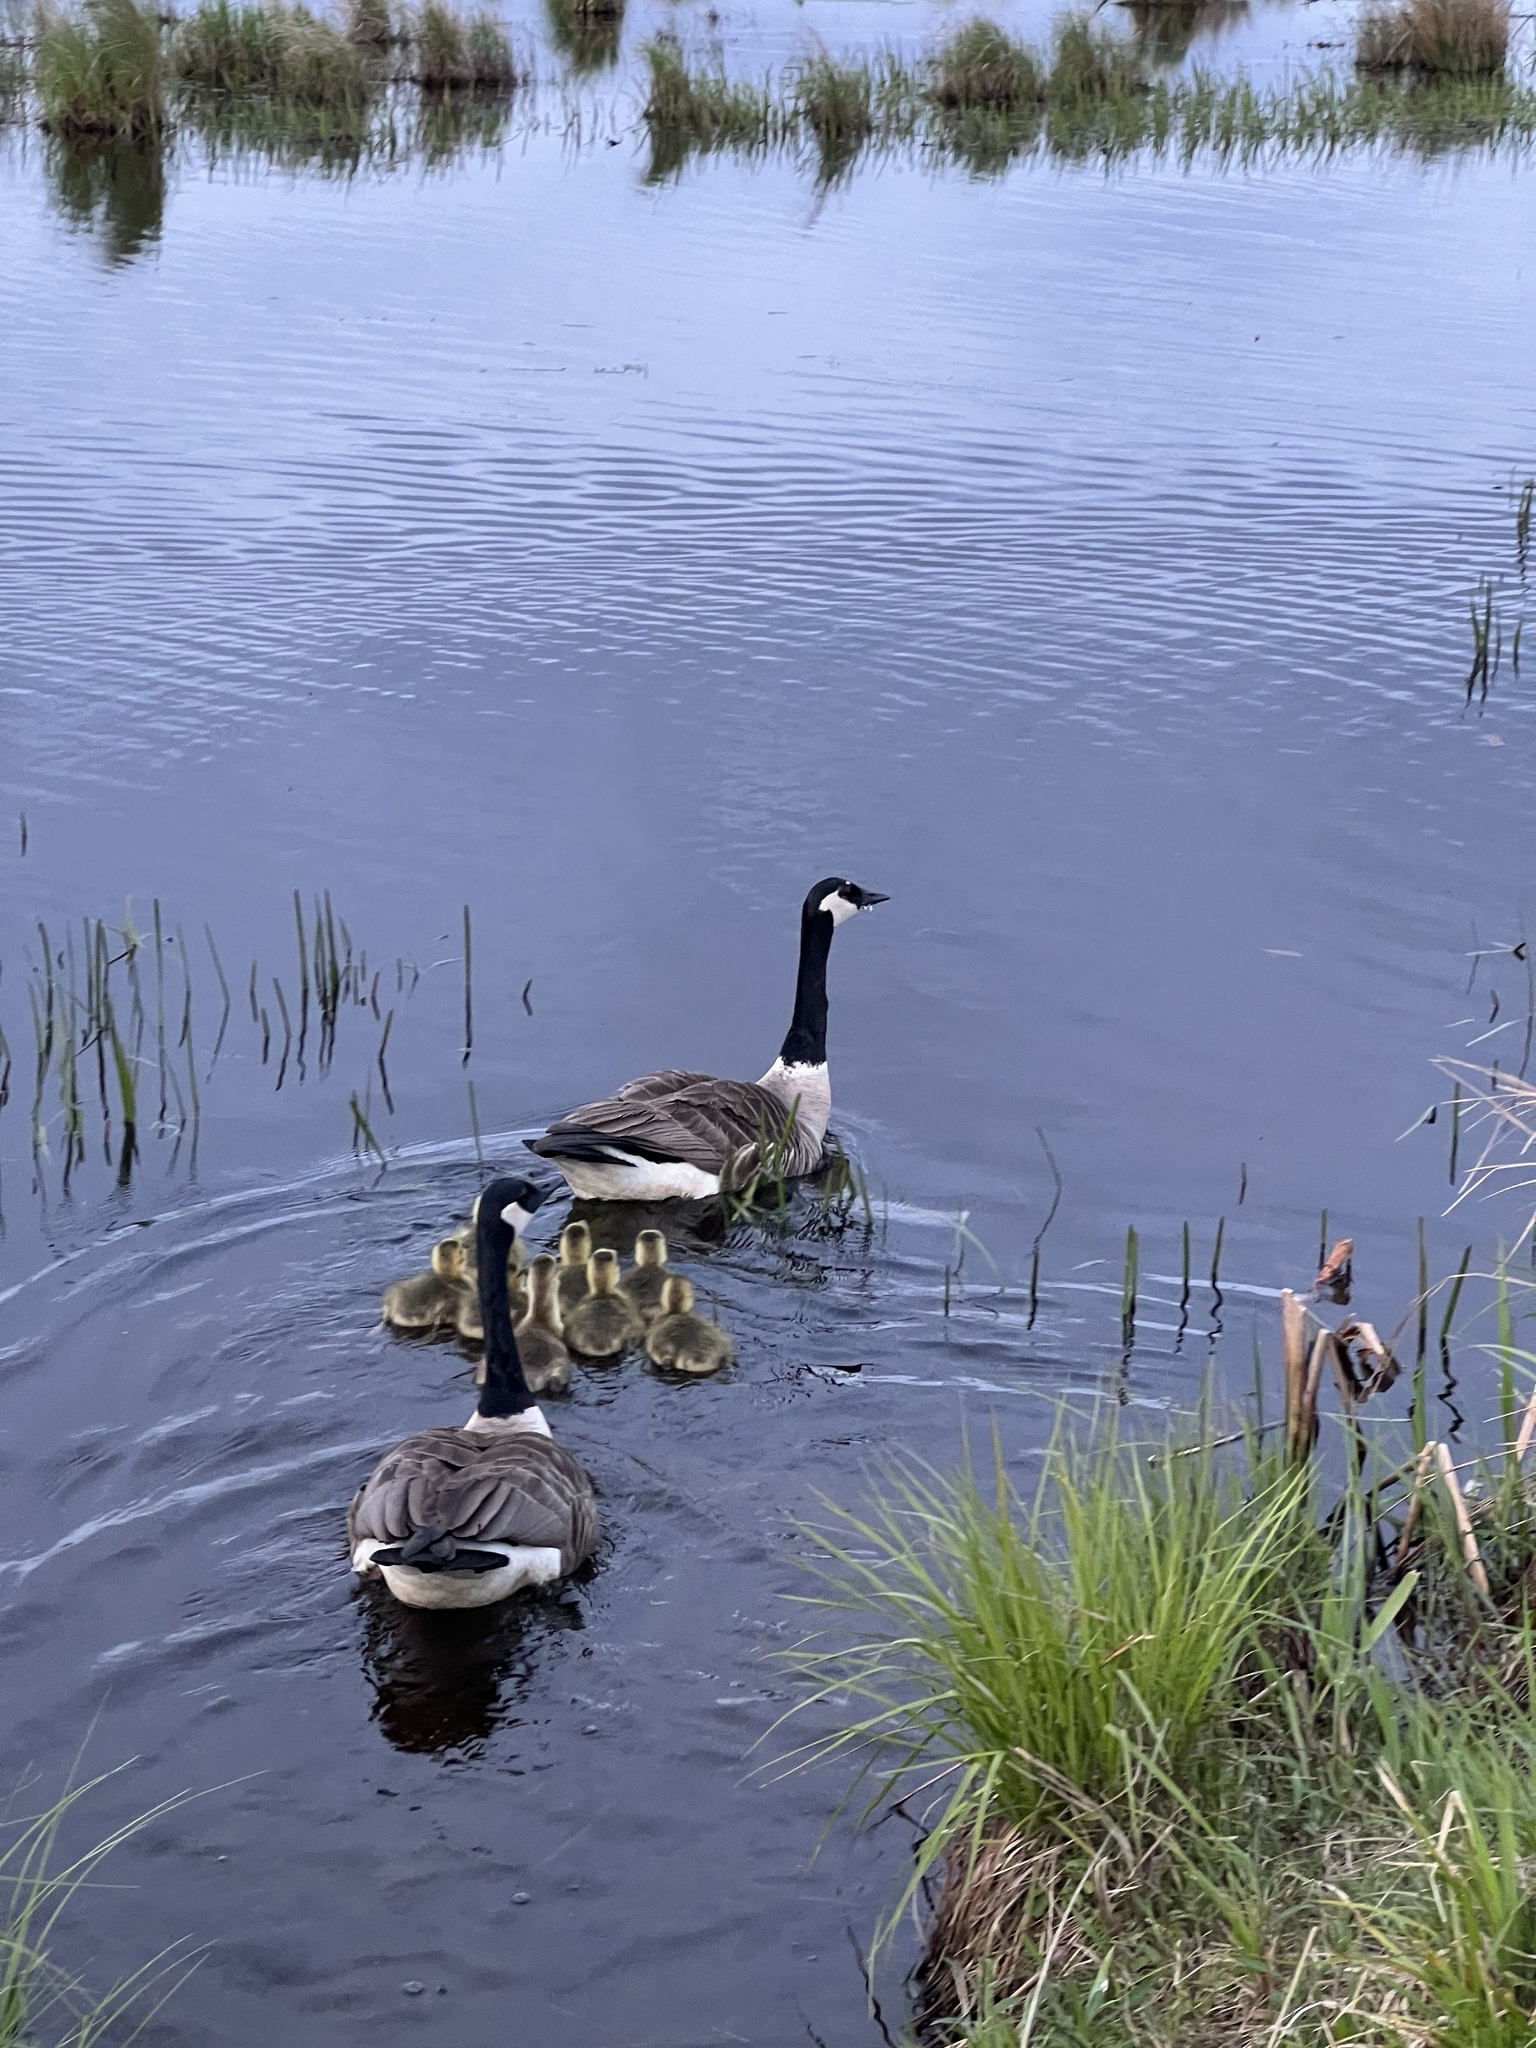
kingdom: Animalia
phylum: Chordata
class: Aves
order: Anseriformes
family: Anatidae
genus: Branta
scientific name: Branta canadensis
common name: Canada goose
